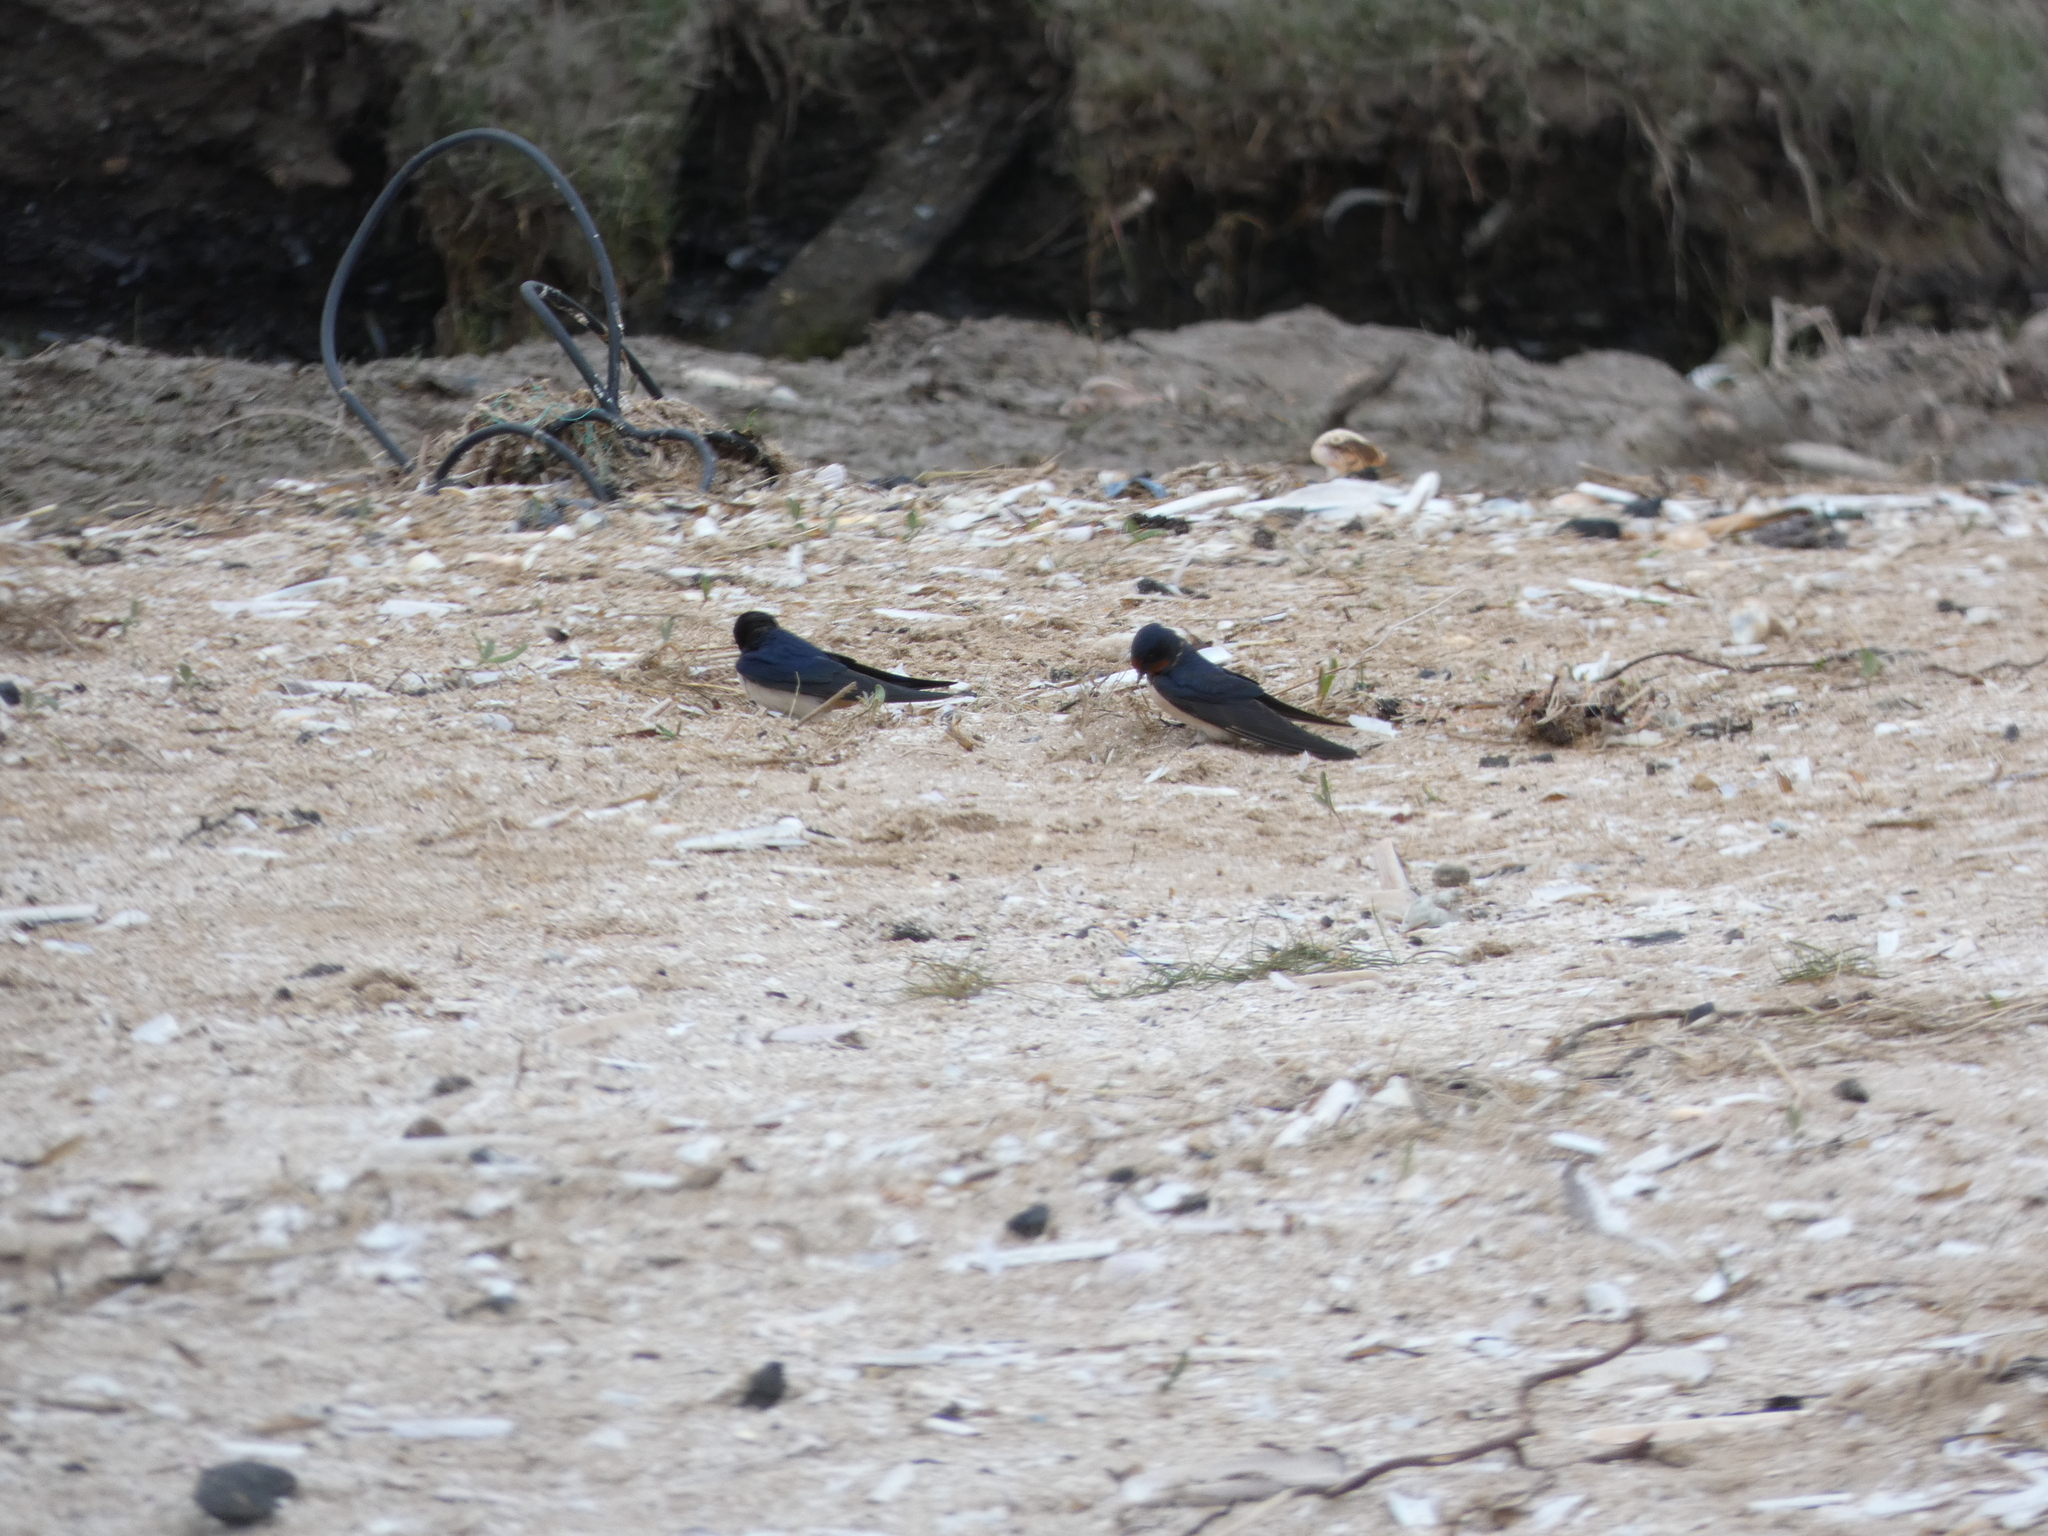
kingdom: Animalia
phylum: Chordata
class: Aves
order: Passeriformes
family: Hirundinidae
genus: Hirundo
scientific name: Hirundo rustica
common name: Barn swallow
